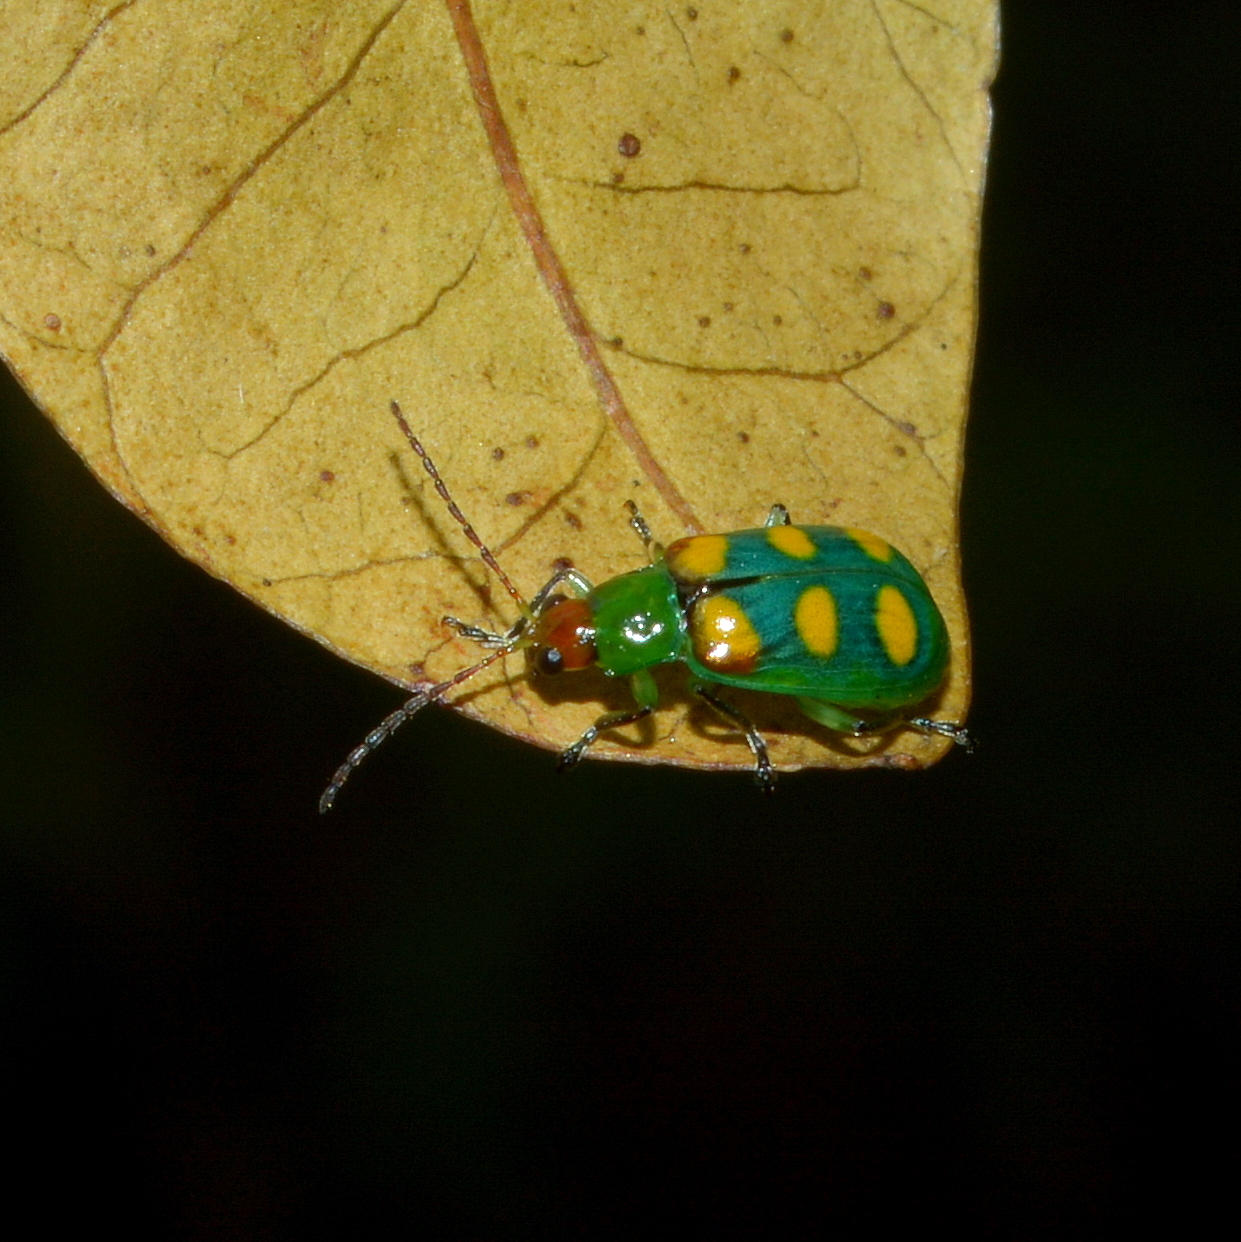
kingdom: Animalia
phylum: Arthropoda
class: Insecta
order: Coleoptera
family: Chrysomelidae
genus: Diabrotica
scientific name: Diabrotica speciosa
